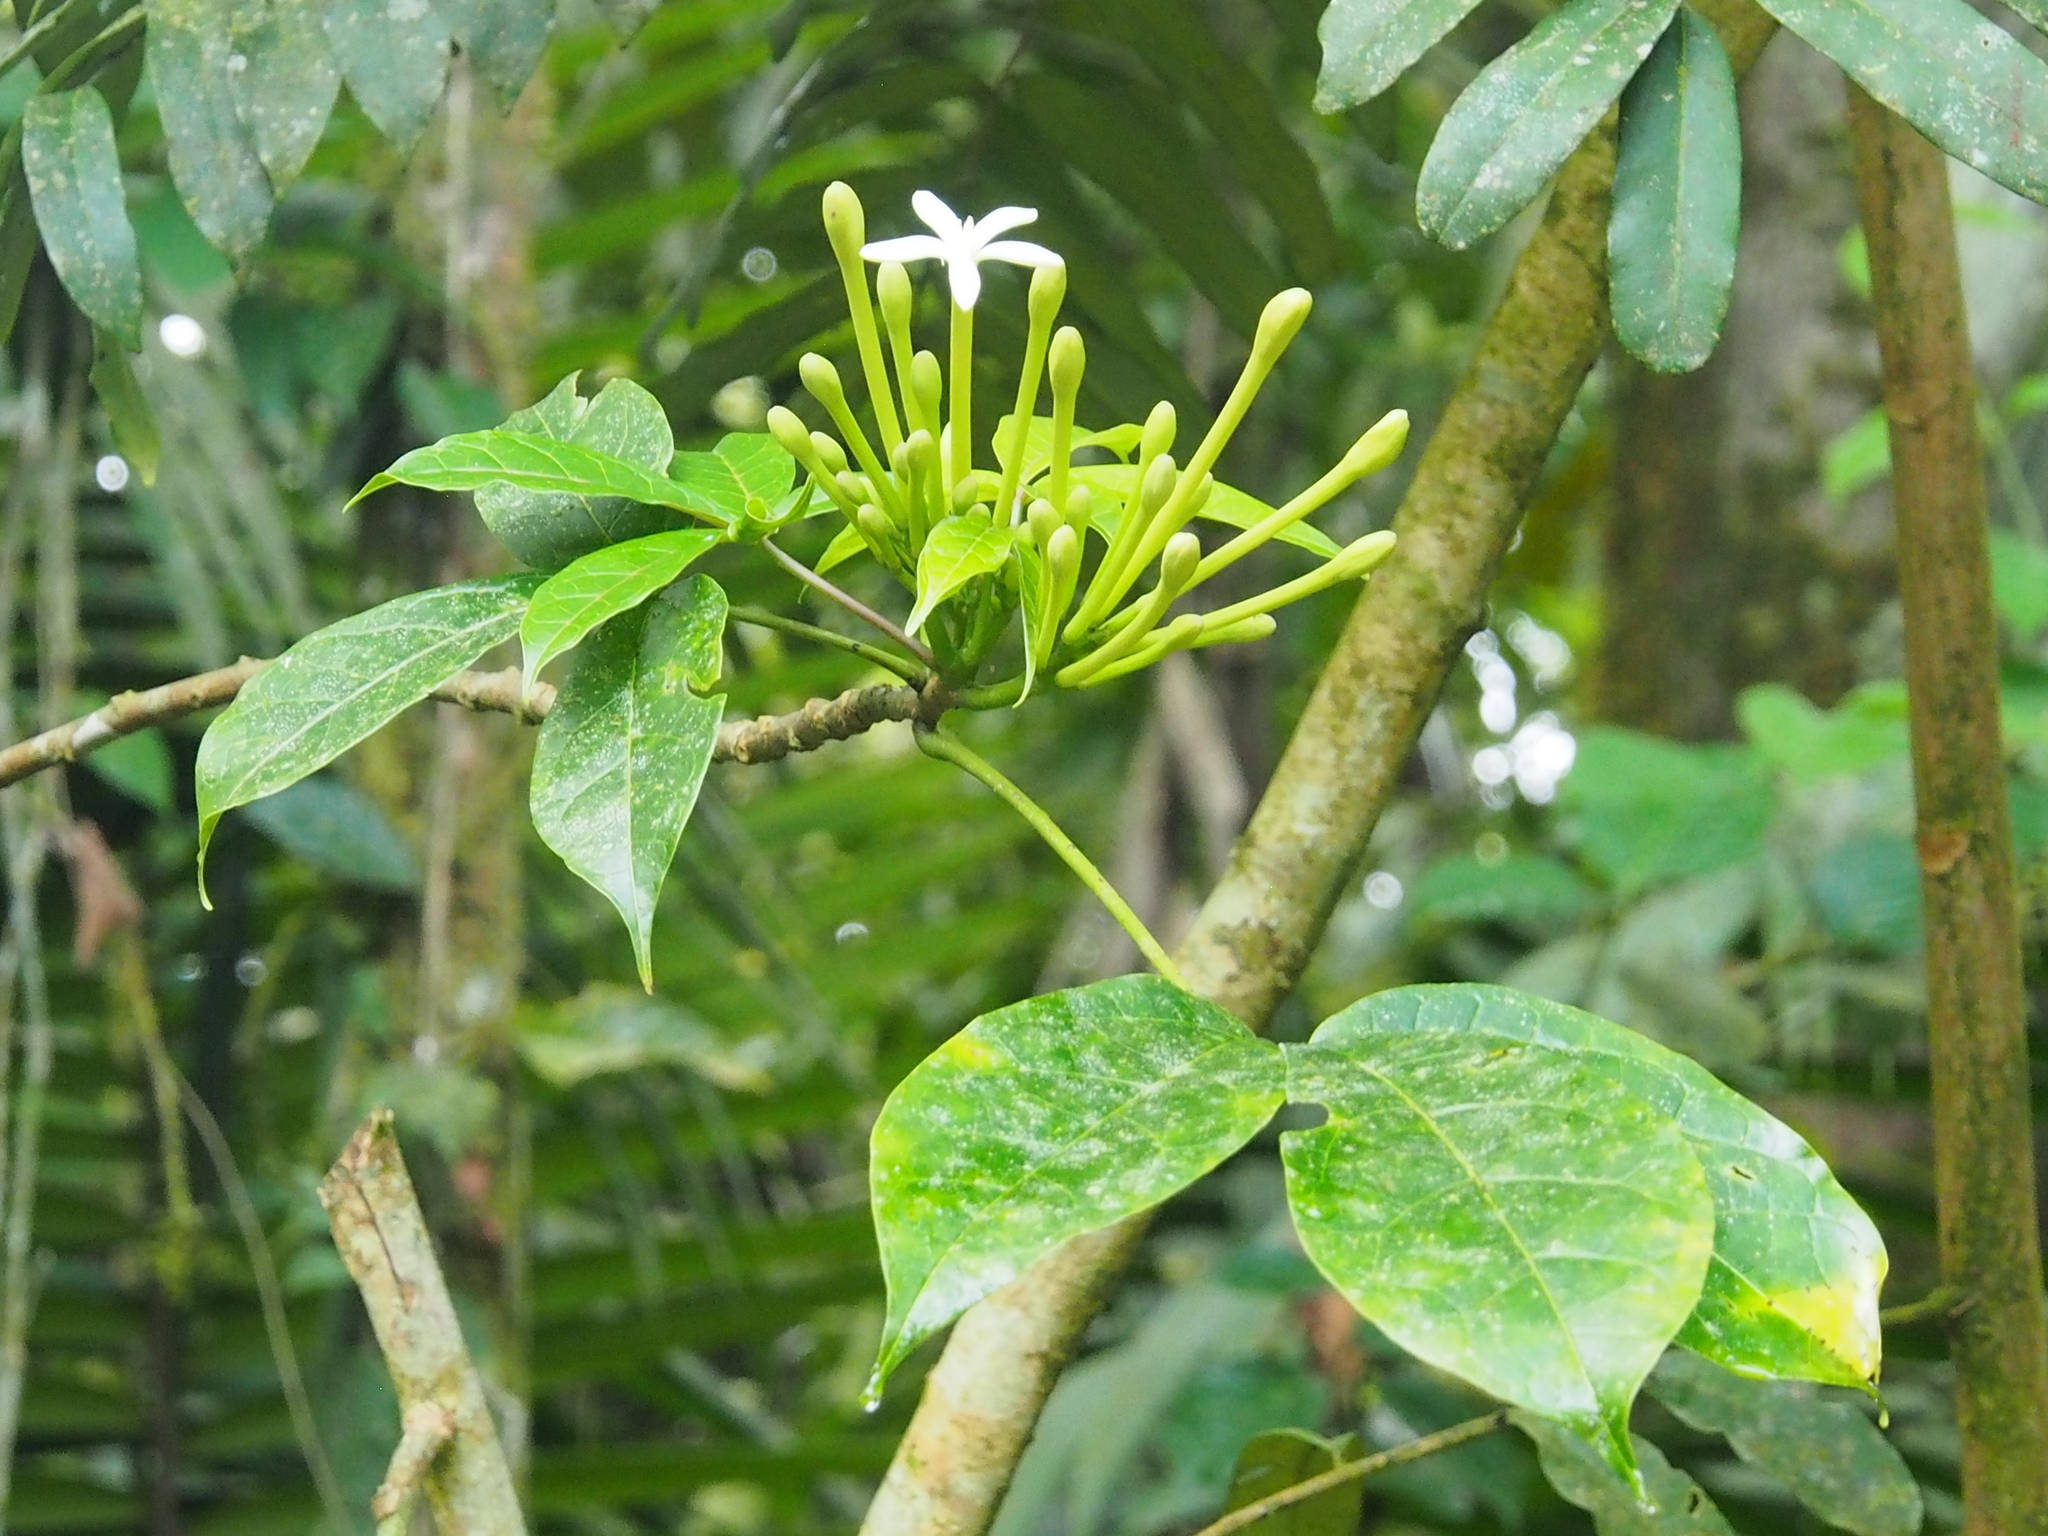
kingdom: Plantae
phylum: Tracheophyta
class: Magnoliopsida
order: Brassicales
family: Caricaceae
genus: Jacaratia
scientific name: Jacaratia dolichaula
